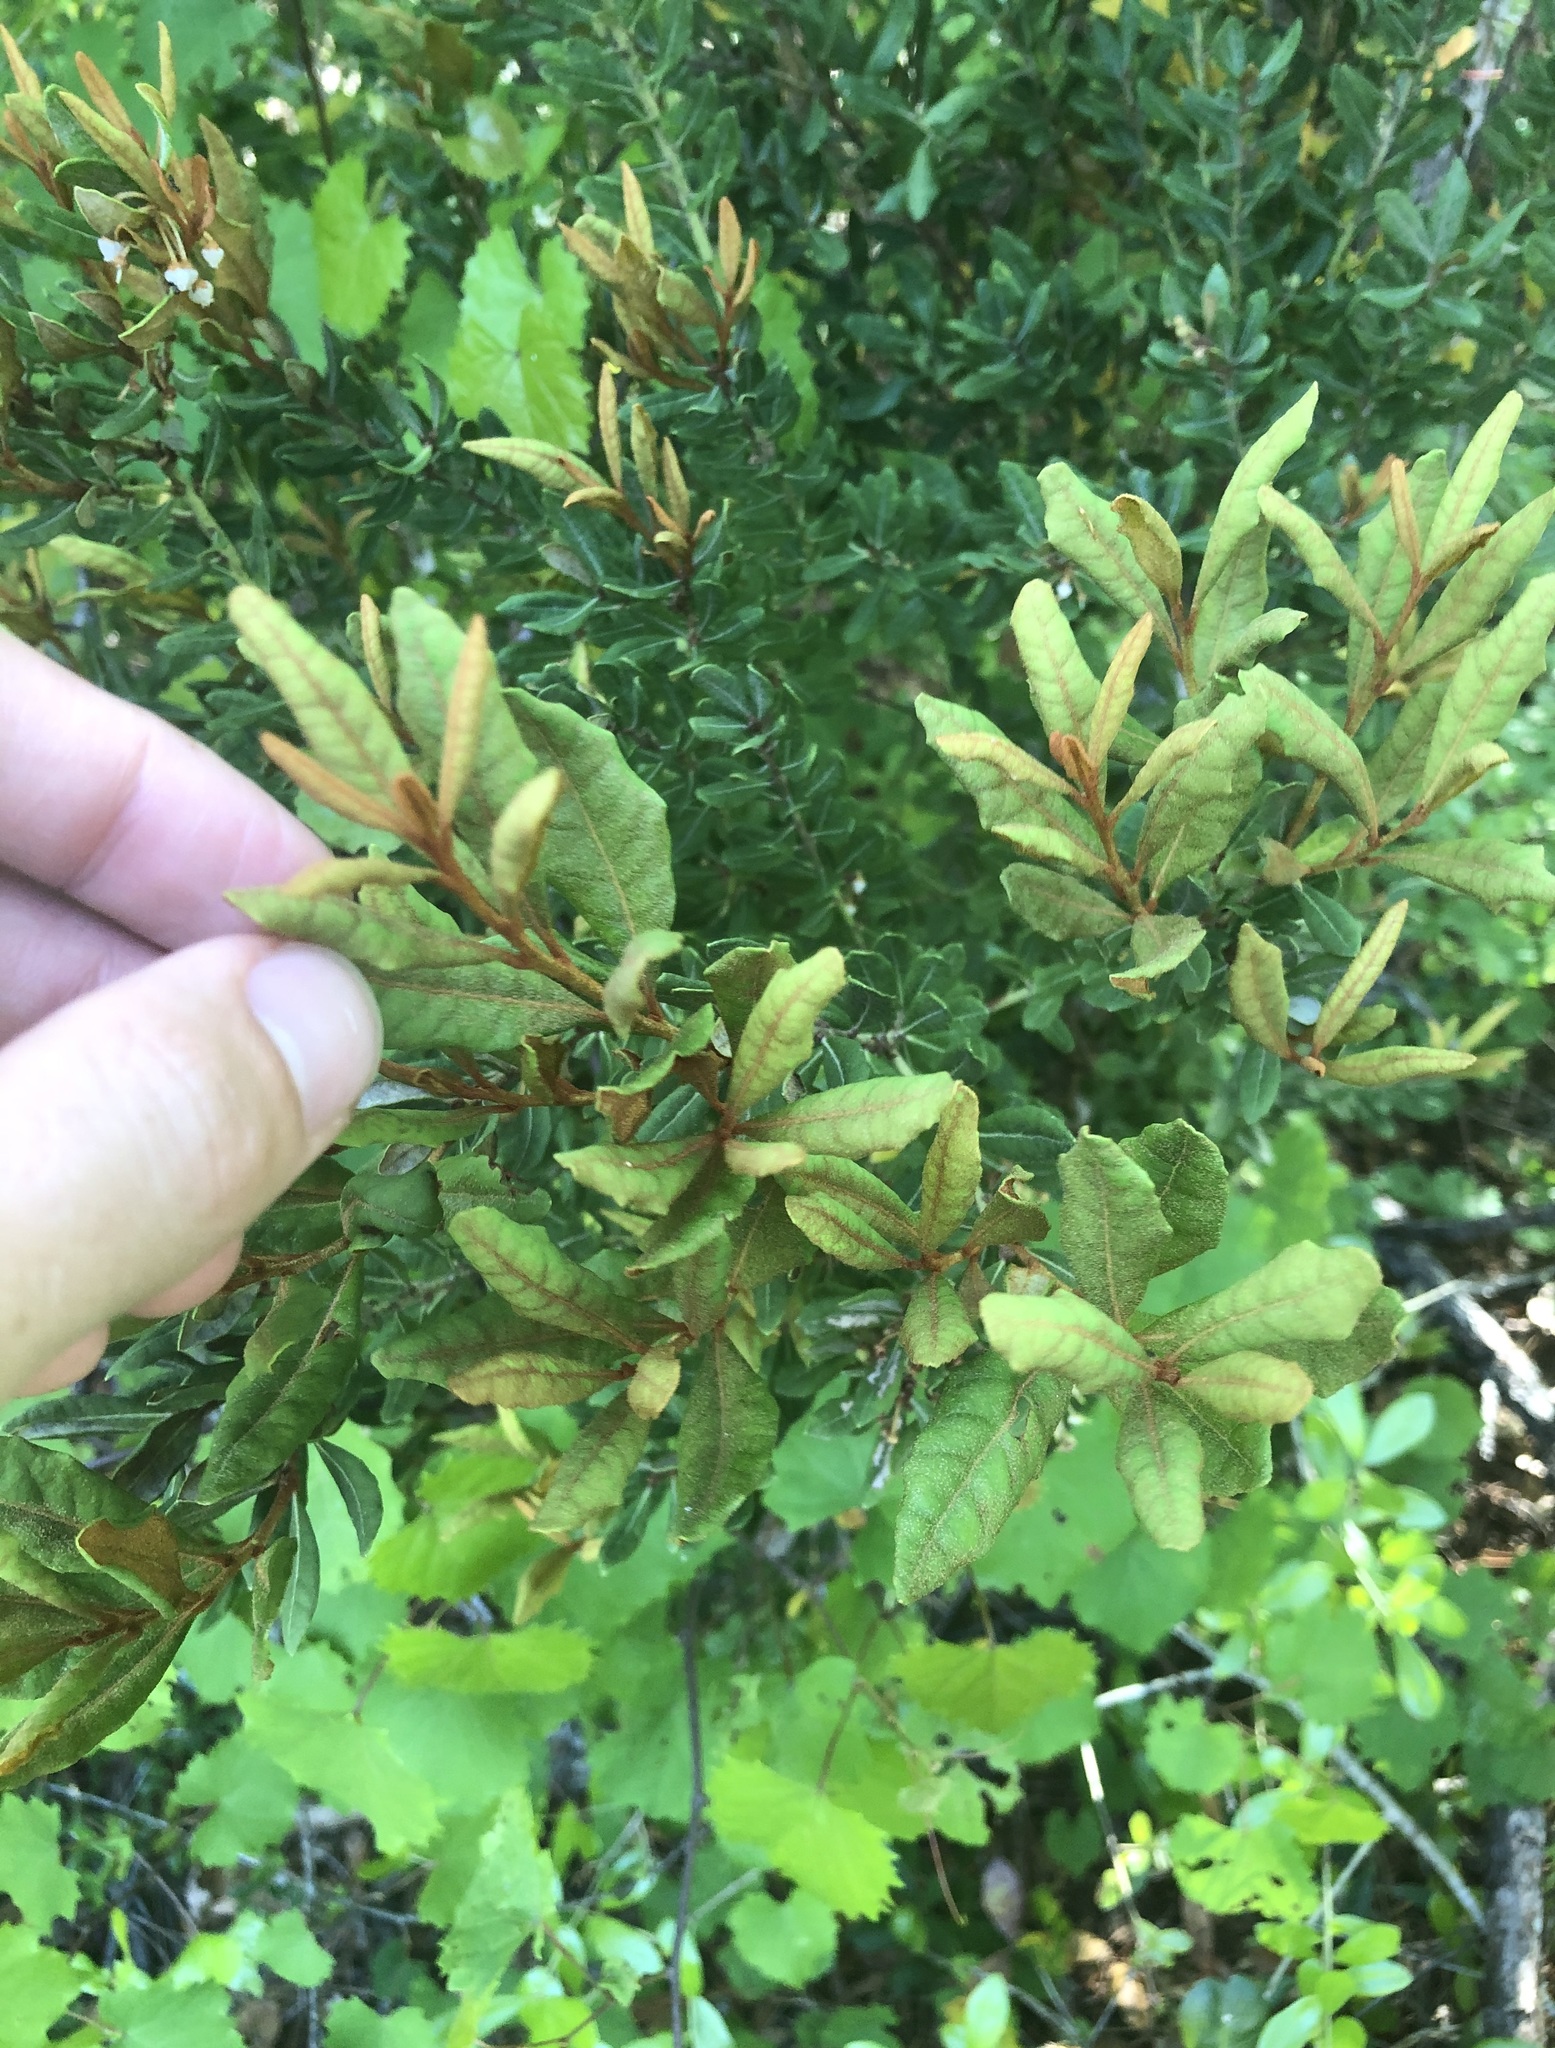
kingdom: Plantae
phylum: Tracheophyta
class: Magnoliopsida
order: Ericales
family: Ericaceae
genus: Lyonia
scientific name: Lyonia ferruginea
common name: Rusty lyonia
